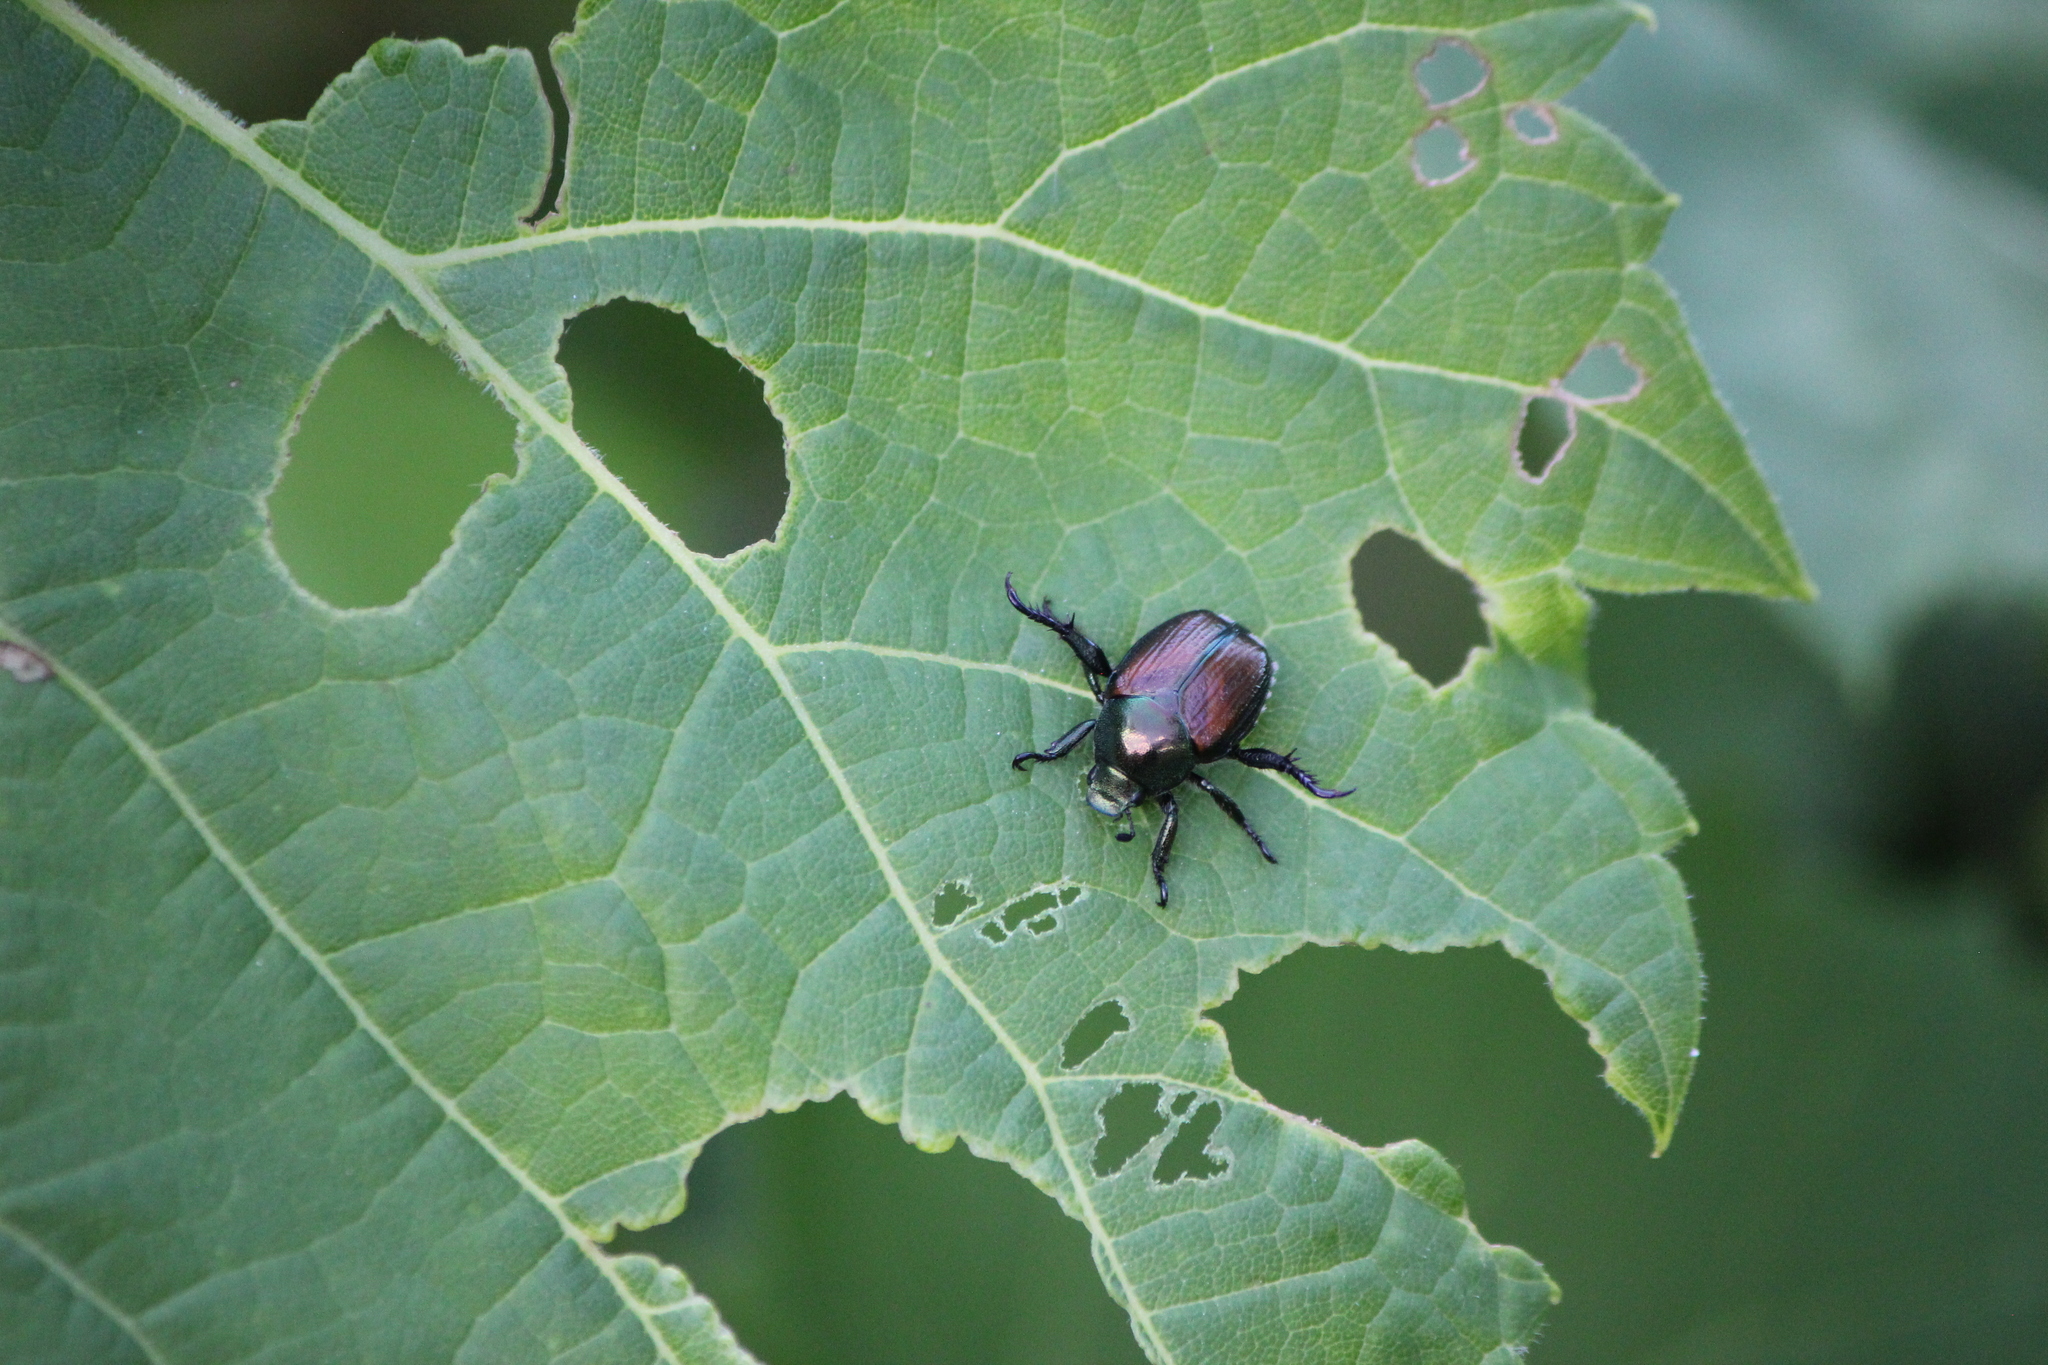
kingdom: Animalia
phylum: Arthropoda
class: Insecta
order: Coleoptera
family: Scarabaeidae
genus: Popillia
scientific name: Popillia japonica
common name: Japanese beetle
